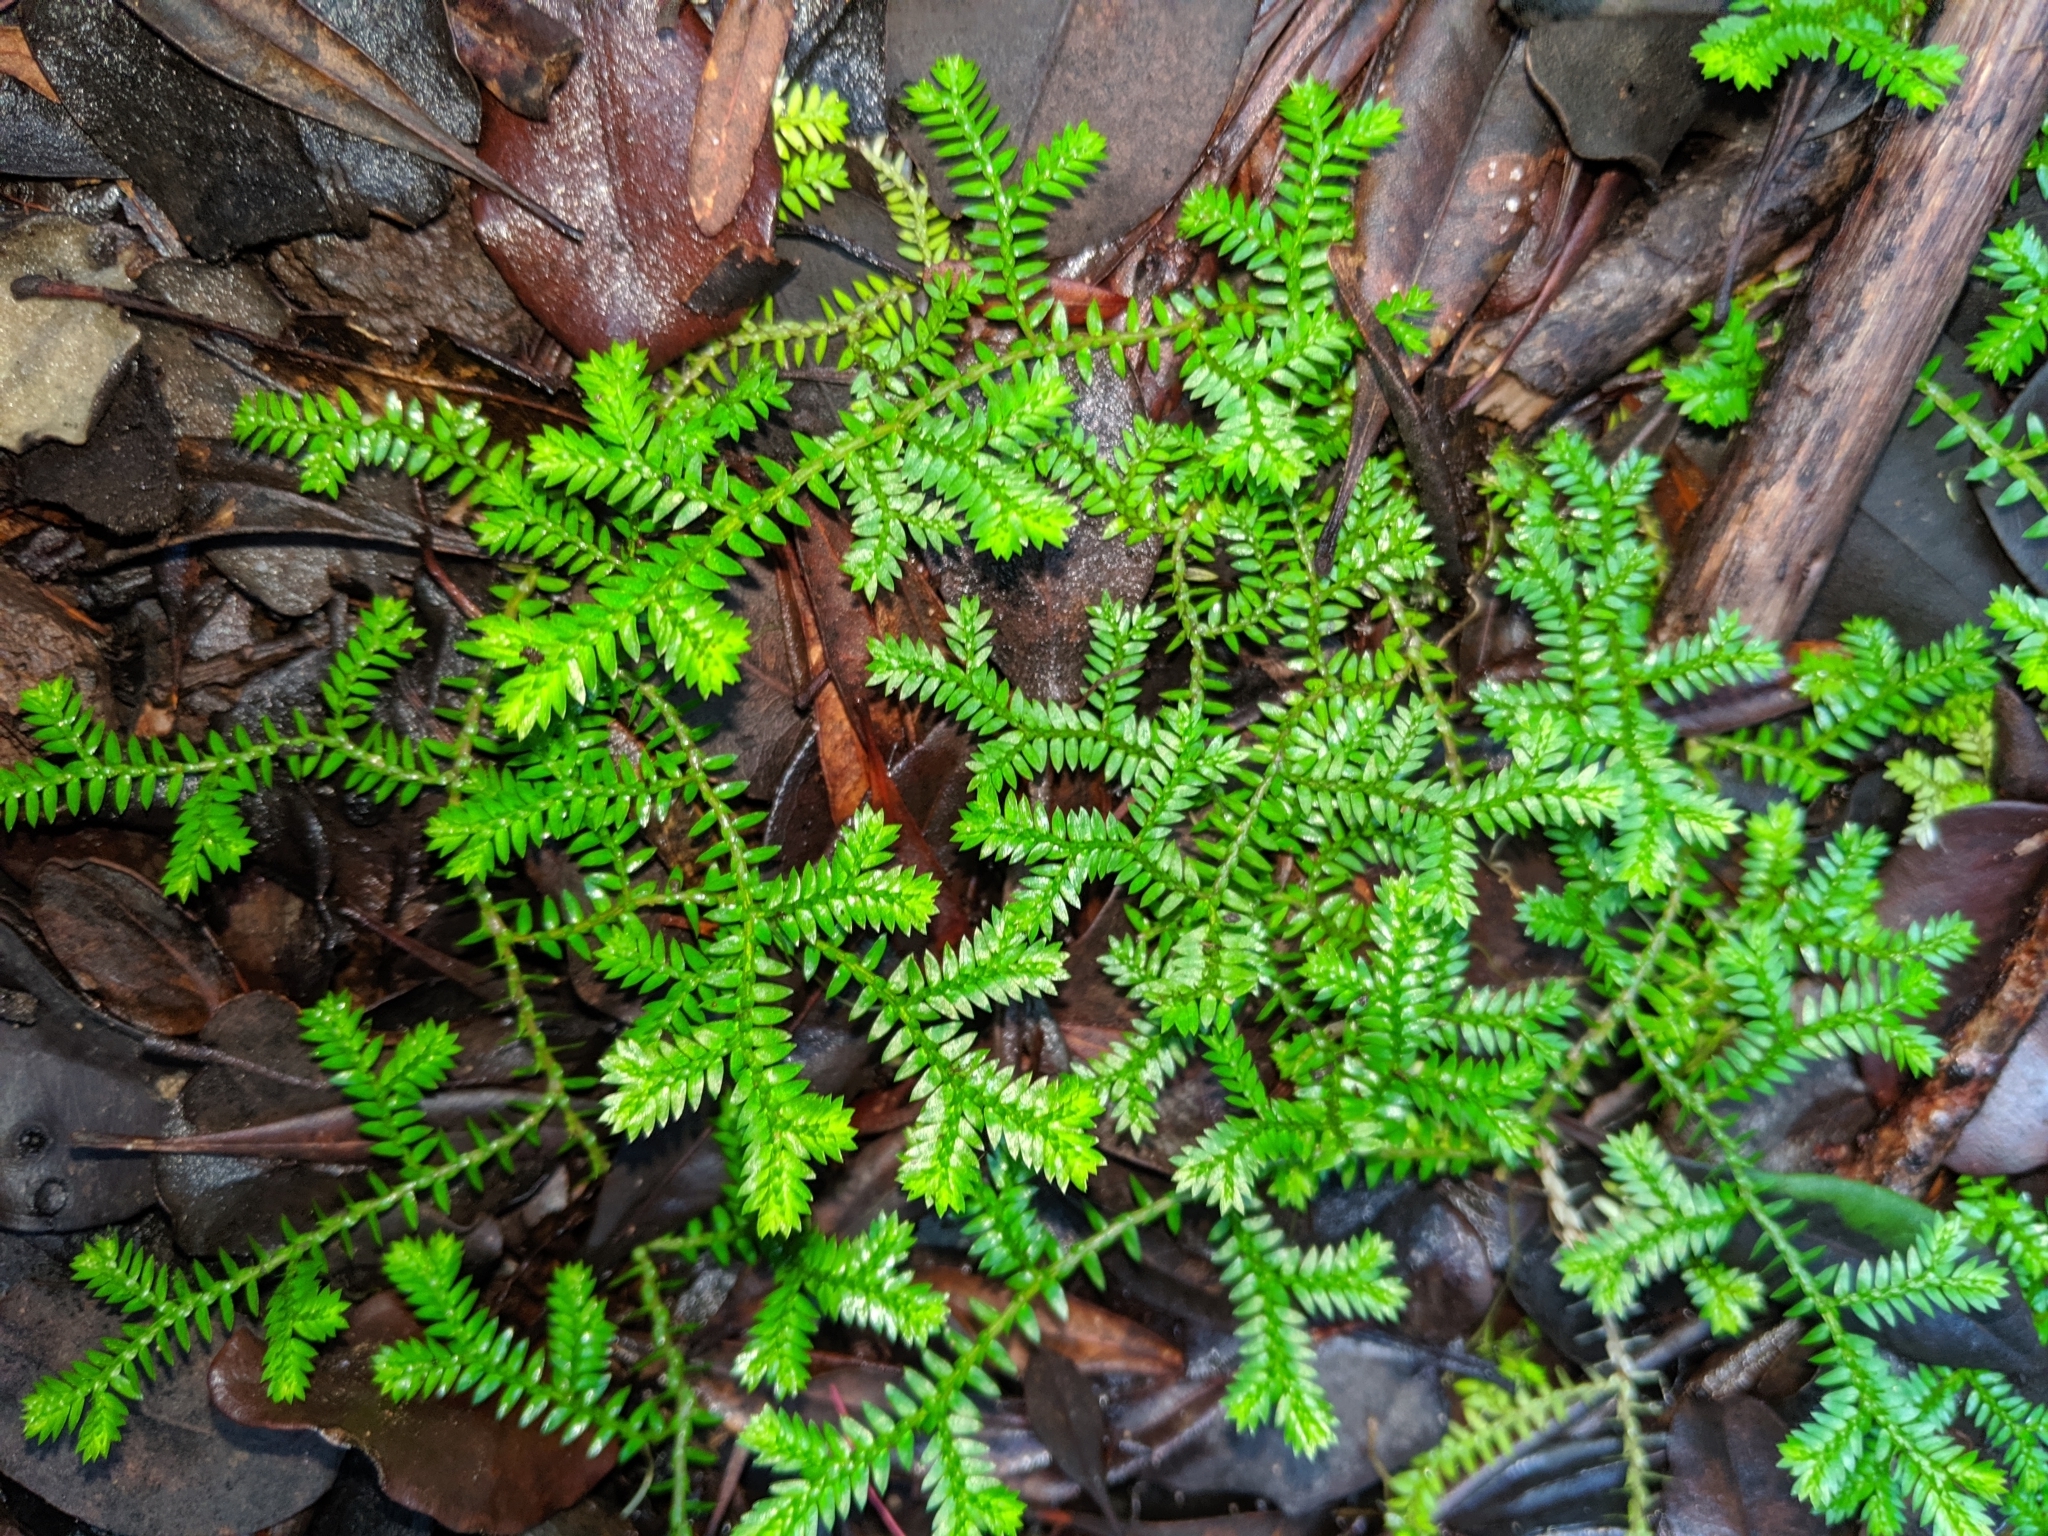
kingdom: Plantae
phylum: Tracheophyta
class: Lycopodiopsida
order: Selaginellales
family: Selaginellaceae
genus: Selaginella
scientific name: Selaginella kraussiana
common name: Krauss' spikemoss
